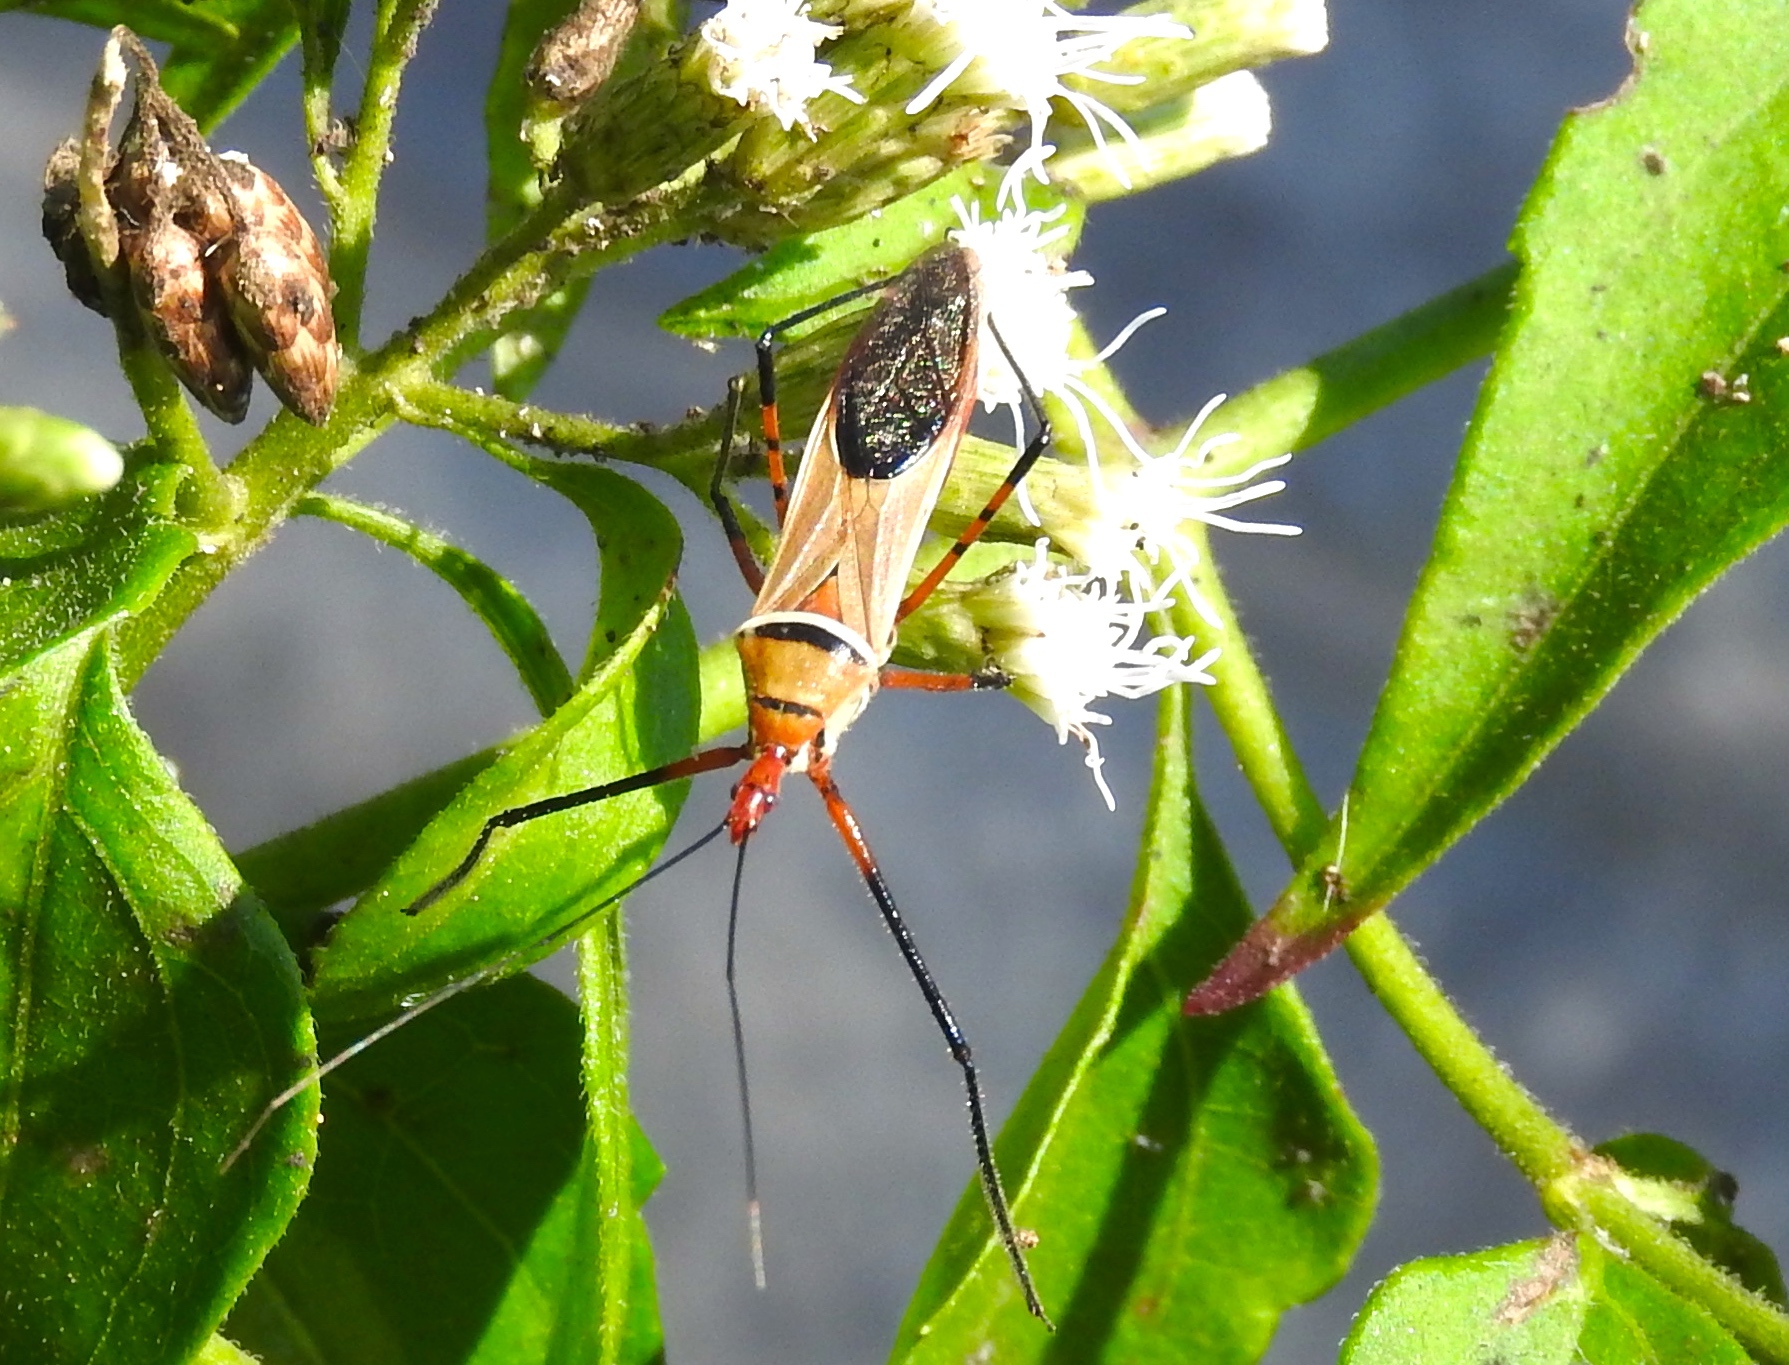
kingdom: Animalia
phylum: Arthropoda
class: Insecta
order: Hemiptera
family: Reduviidae
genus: Zelus
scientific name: Zelus grassans
